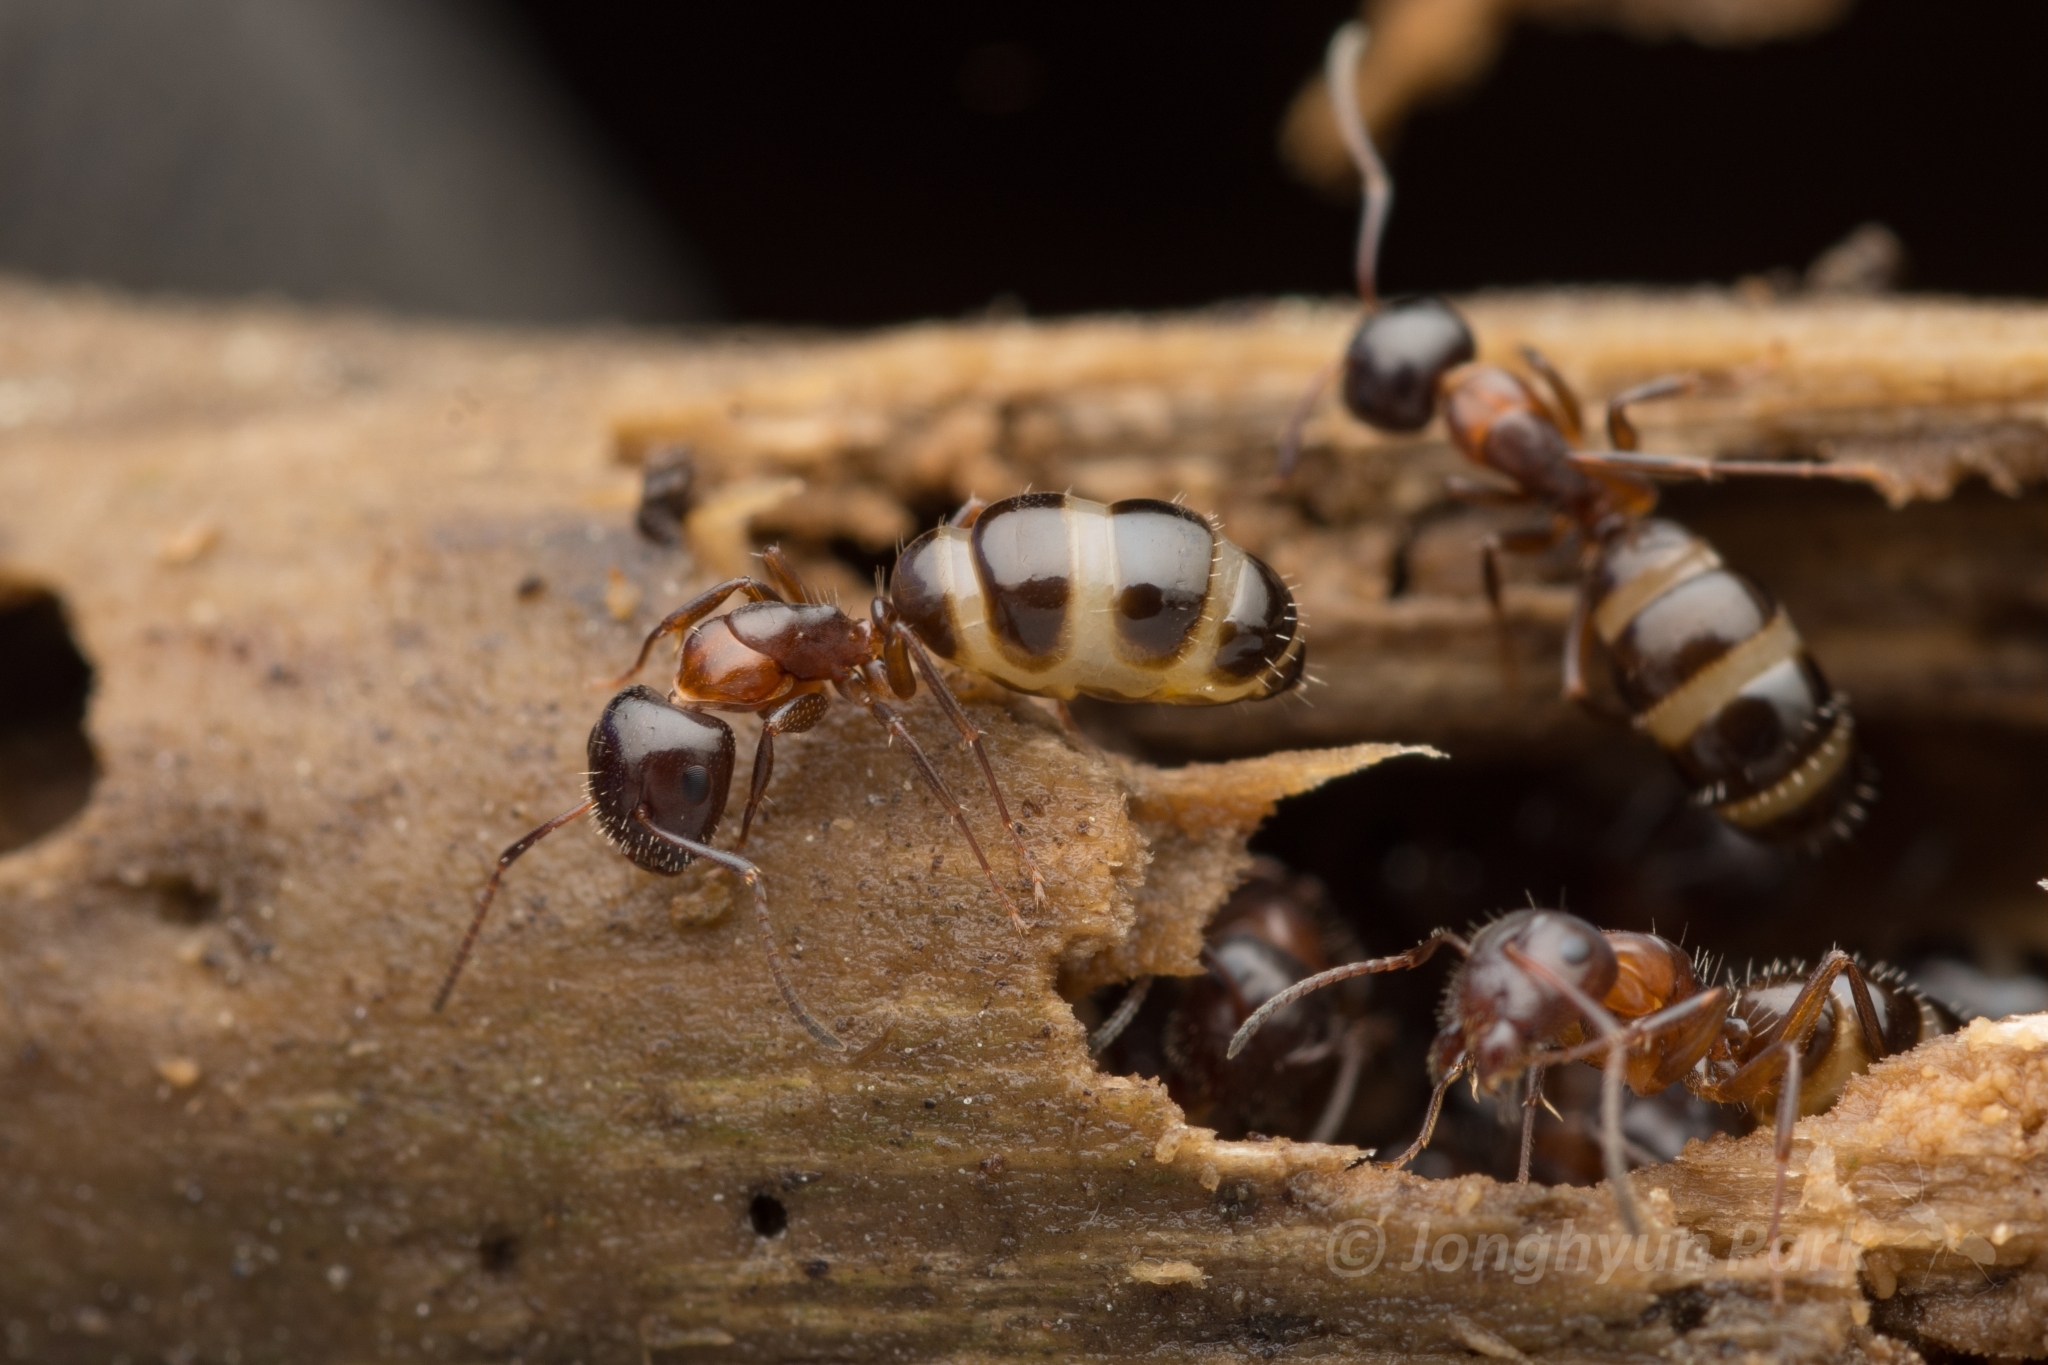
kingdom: Animalia
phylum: Arthropoda
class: Insecta
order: Hymenoptera
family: Formicidae
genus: Camponotus
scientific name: Camponotus vitiosus
